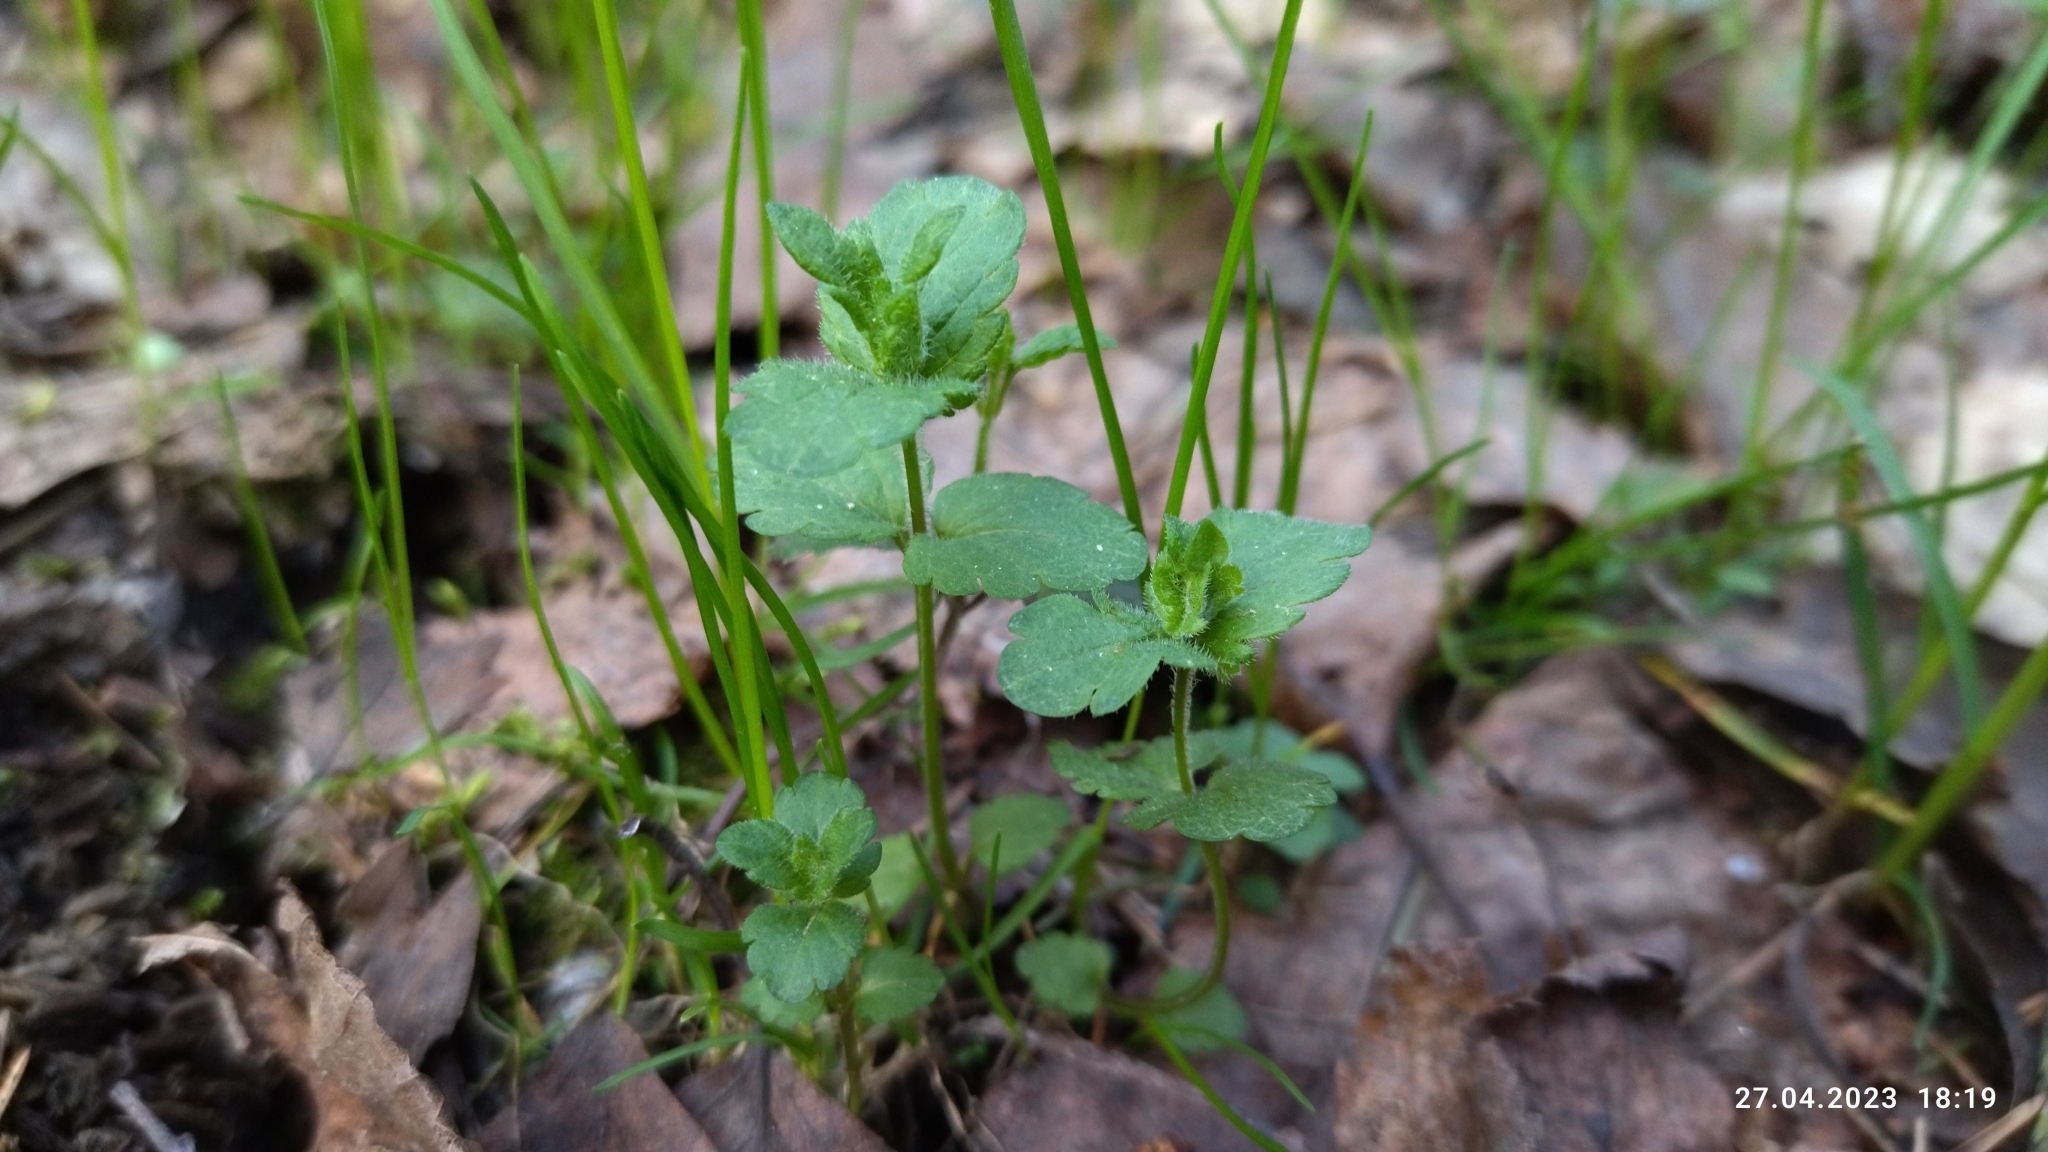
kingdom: Plantae
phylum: Tracheophyta
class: Magnoliopsida
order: Lamiales
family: Plantaginaceae
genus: Veronica
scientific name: Veronica chamaedrys
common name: Germander speedwell
